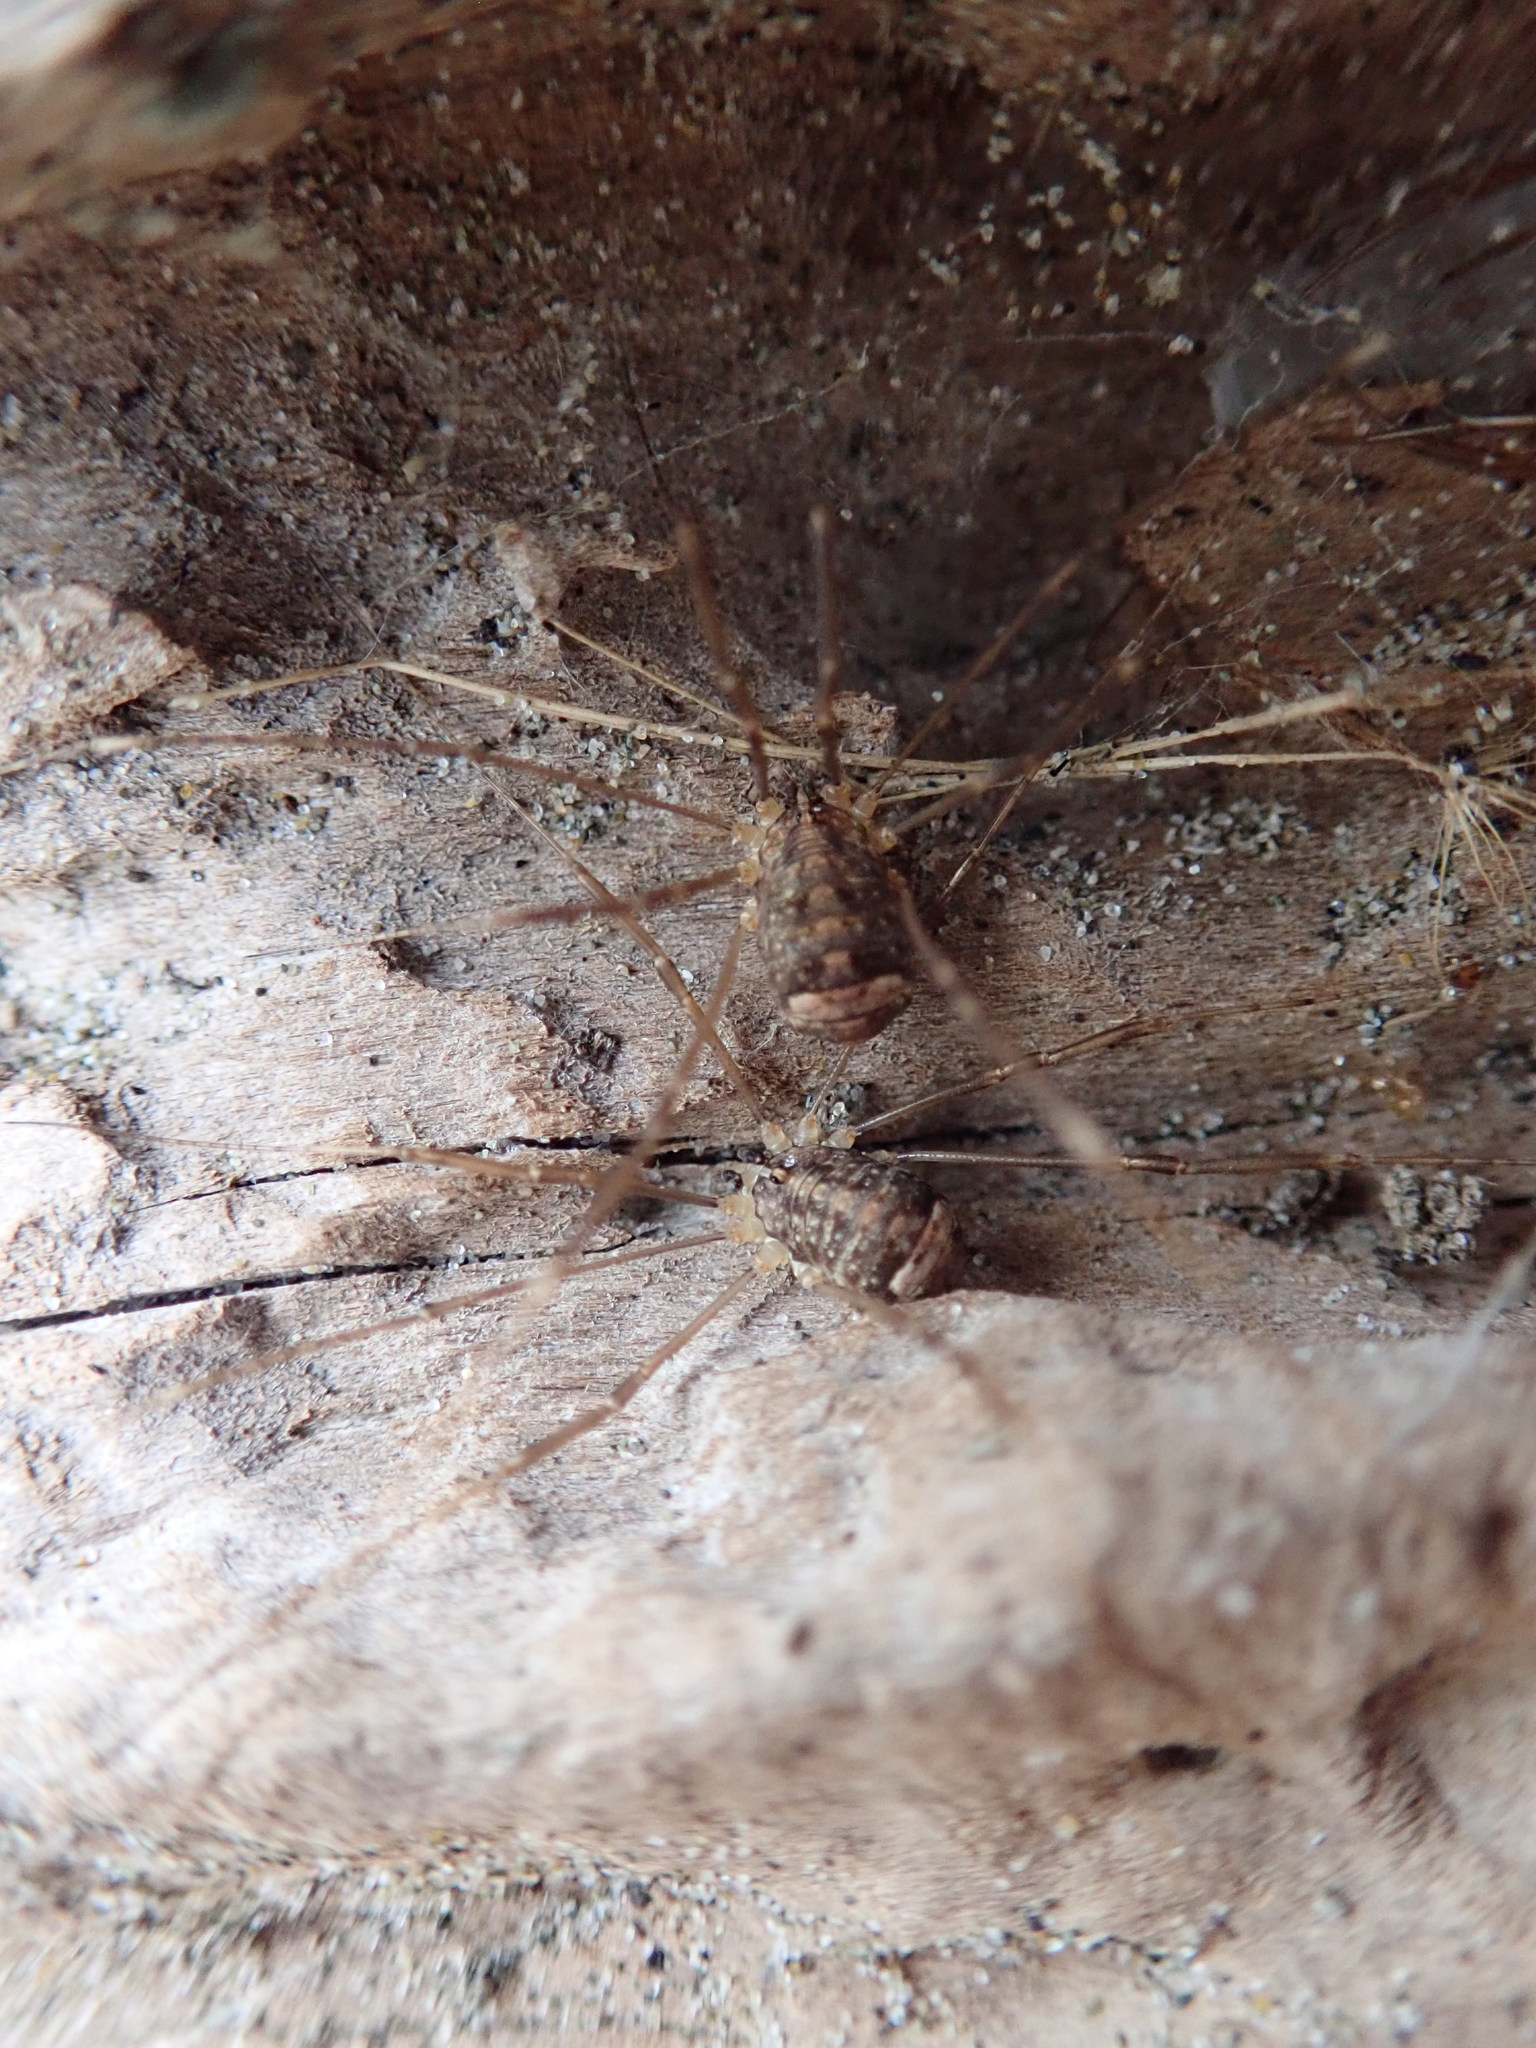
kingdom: Animalia
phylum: Arthropoda
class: Arachnida
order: Opiliones
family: Sclerosomatidae
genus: Nelima
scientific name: Nelima doriae
